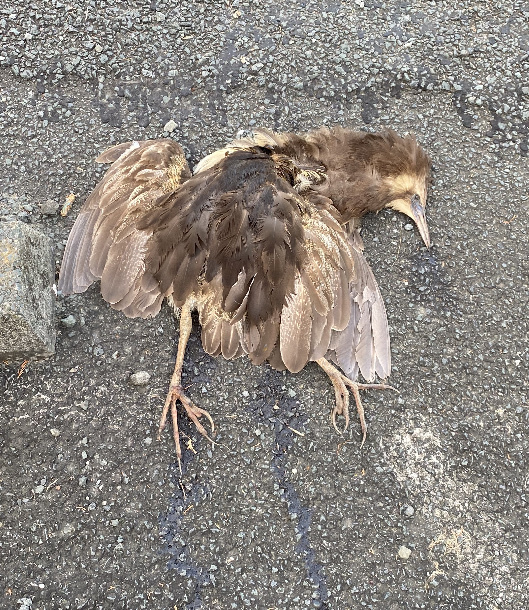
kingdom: Animalia
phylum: Chordata
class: Aves
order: Pelecaniformes
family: Ardeidae
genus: Botaurus
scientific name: Botaurus poiciloptilus
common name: Australasian bittern
